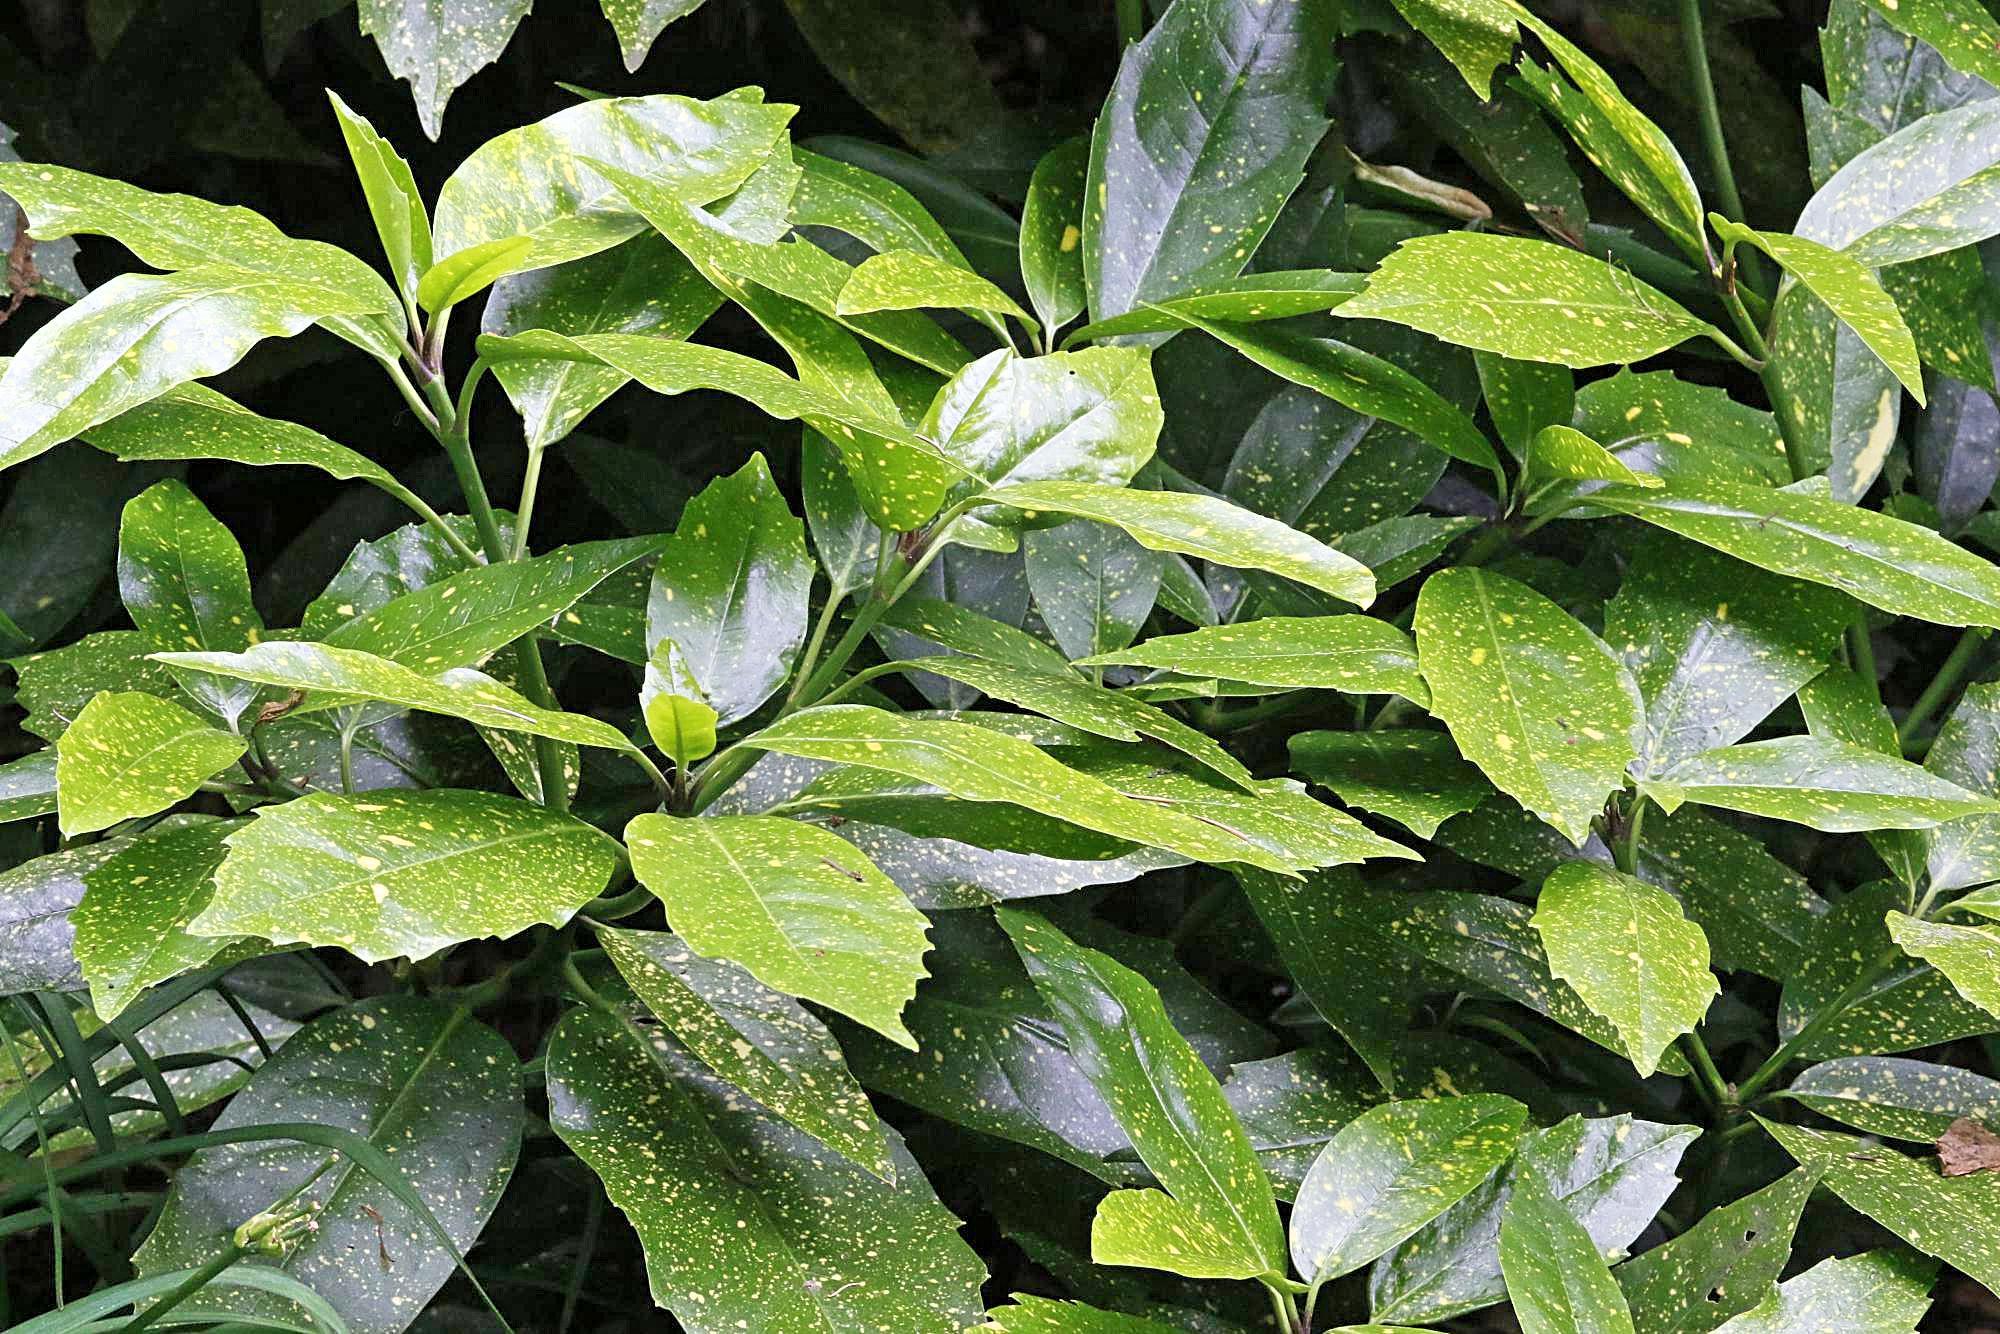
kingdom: Plantae
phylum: Tracheophyta
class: Magnoliopsida
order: Garryales
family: Garryaceae
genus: Aucuba
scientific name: Aucuba japonica
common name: Spotted-laurel
